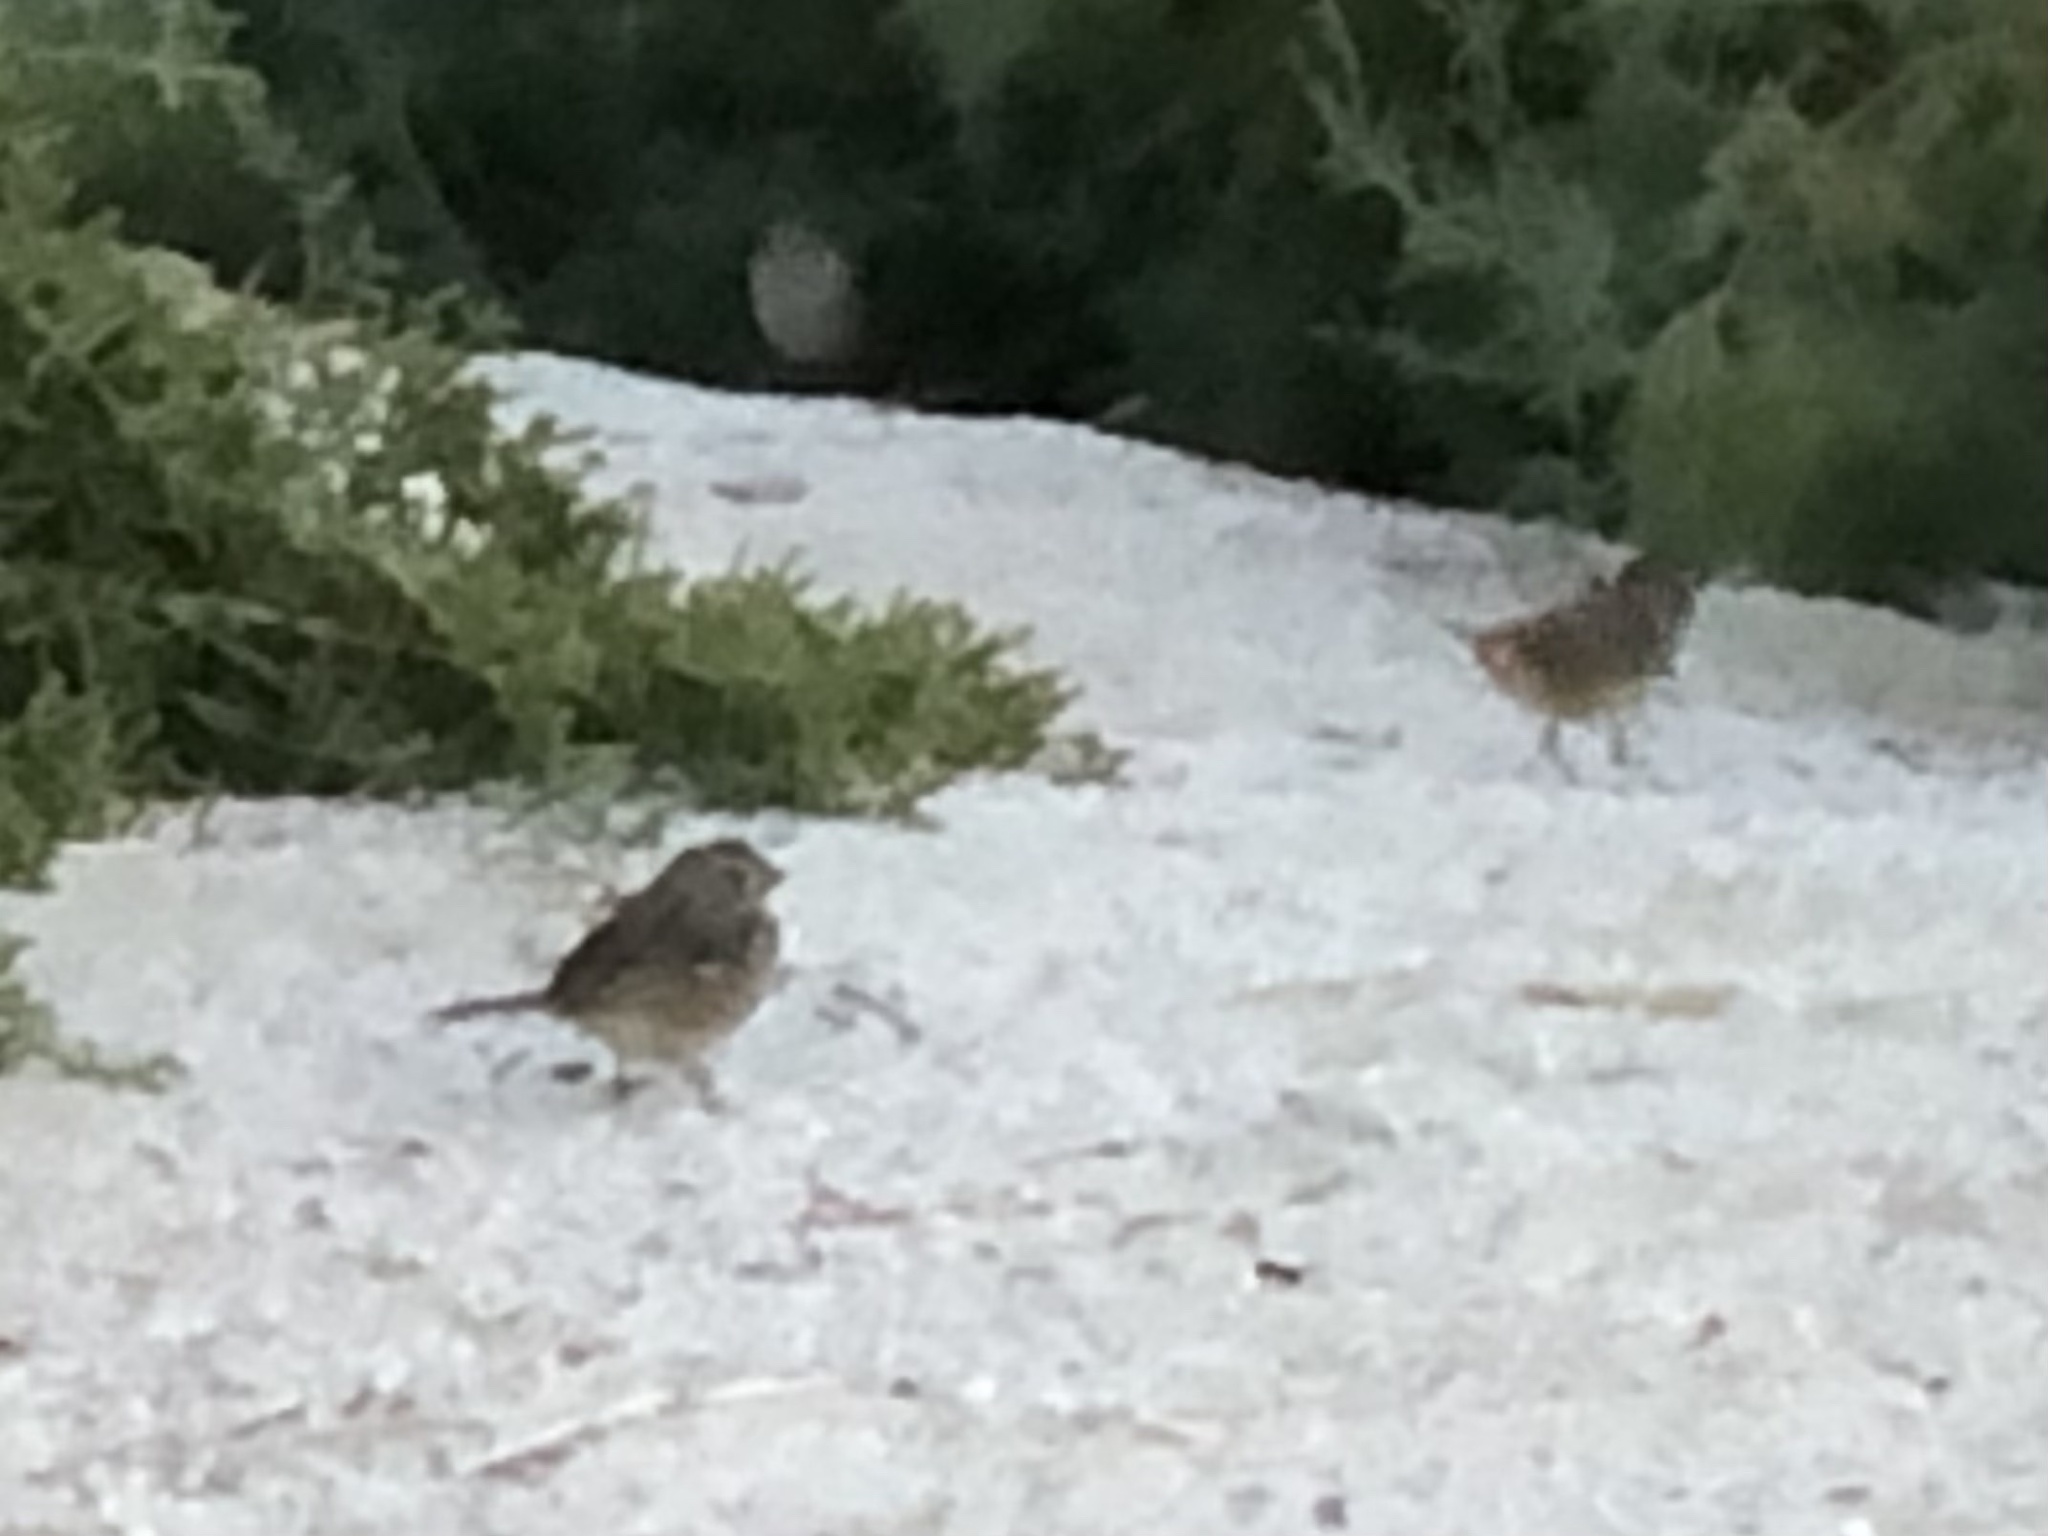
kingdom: Animalia
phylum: Chordata
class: Aves
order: Passeriformes
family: Passerellidae
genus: Zonotrichia
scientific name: Zonotrichia leucophrys
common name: White-crowned sparrow
